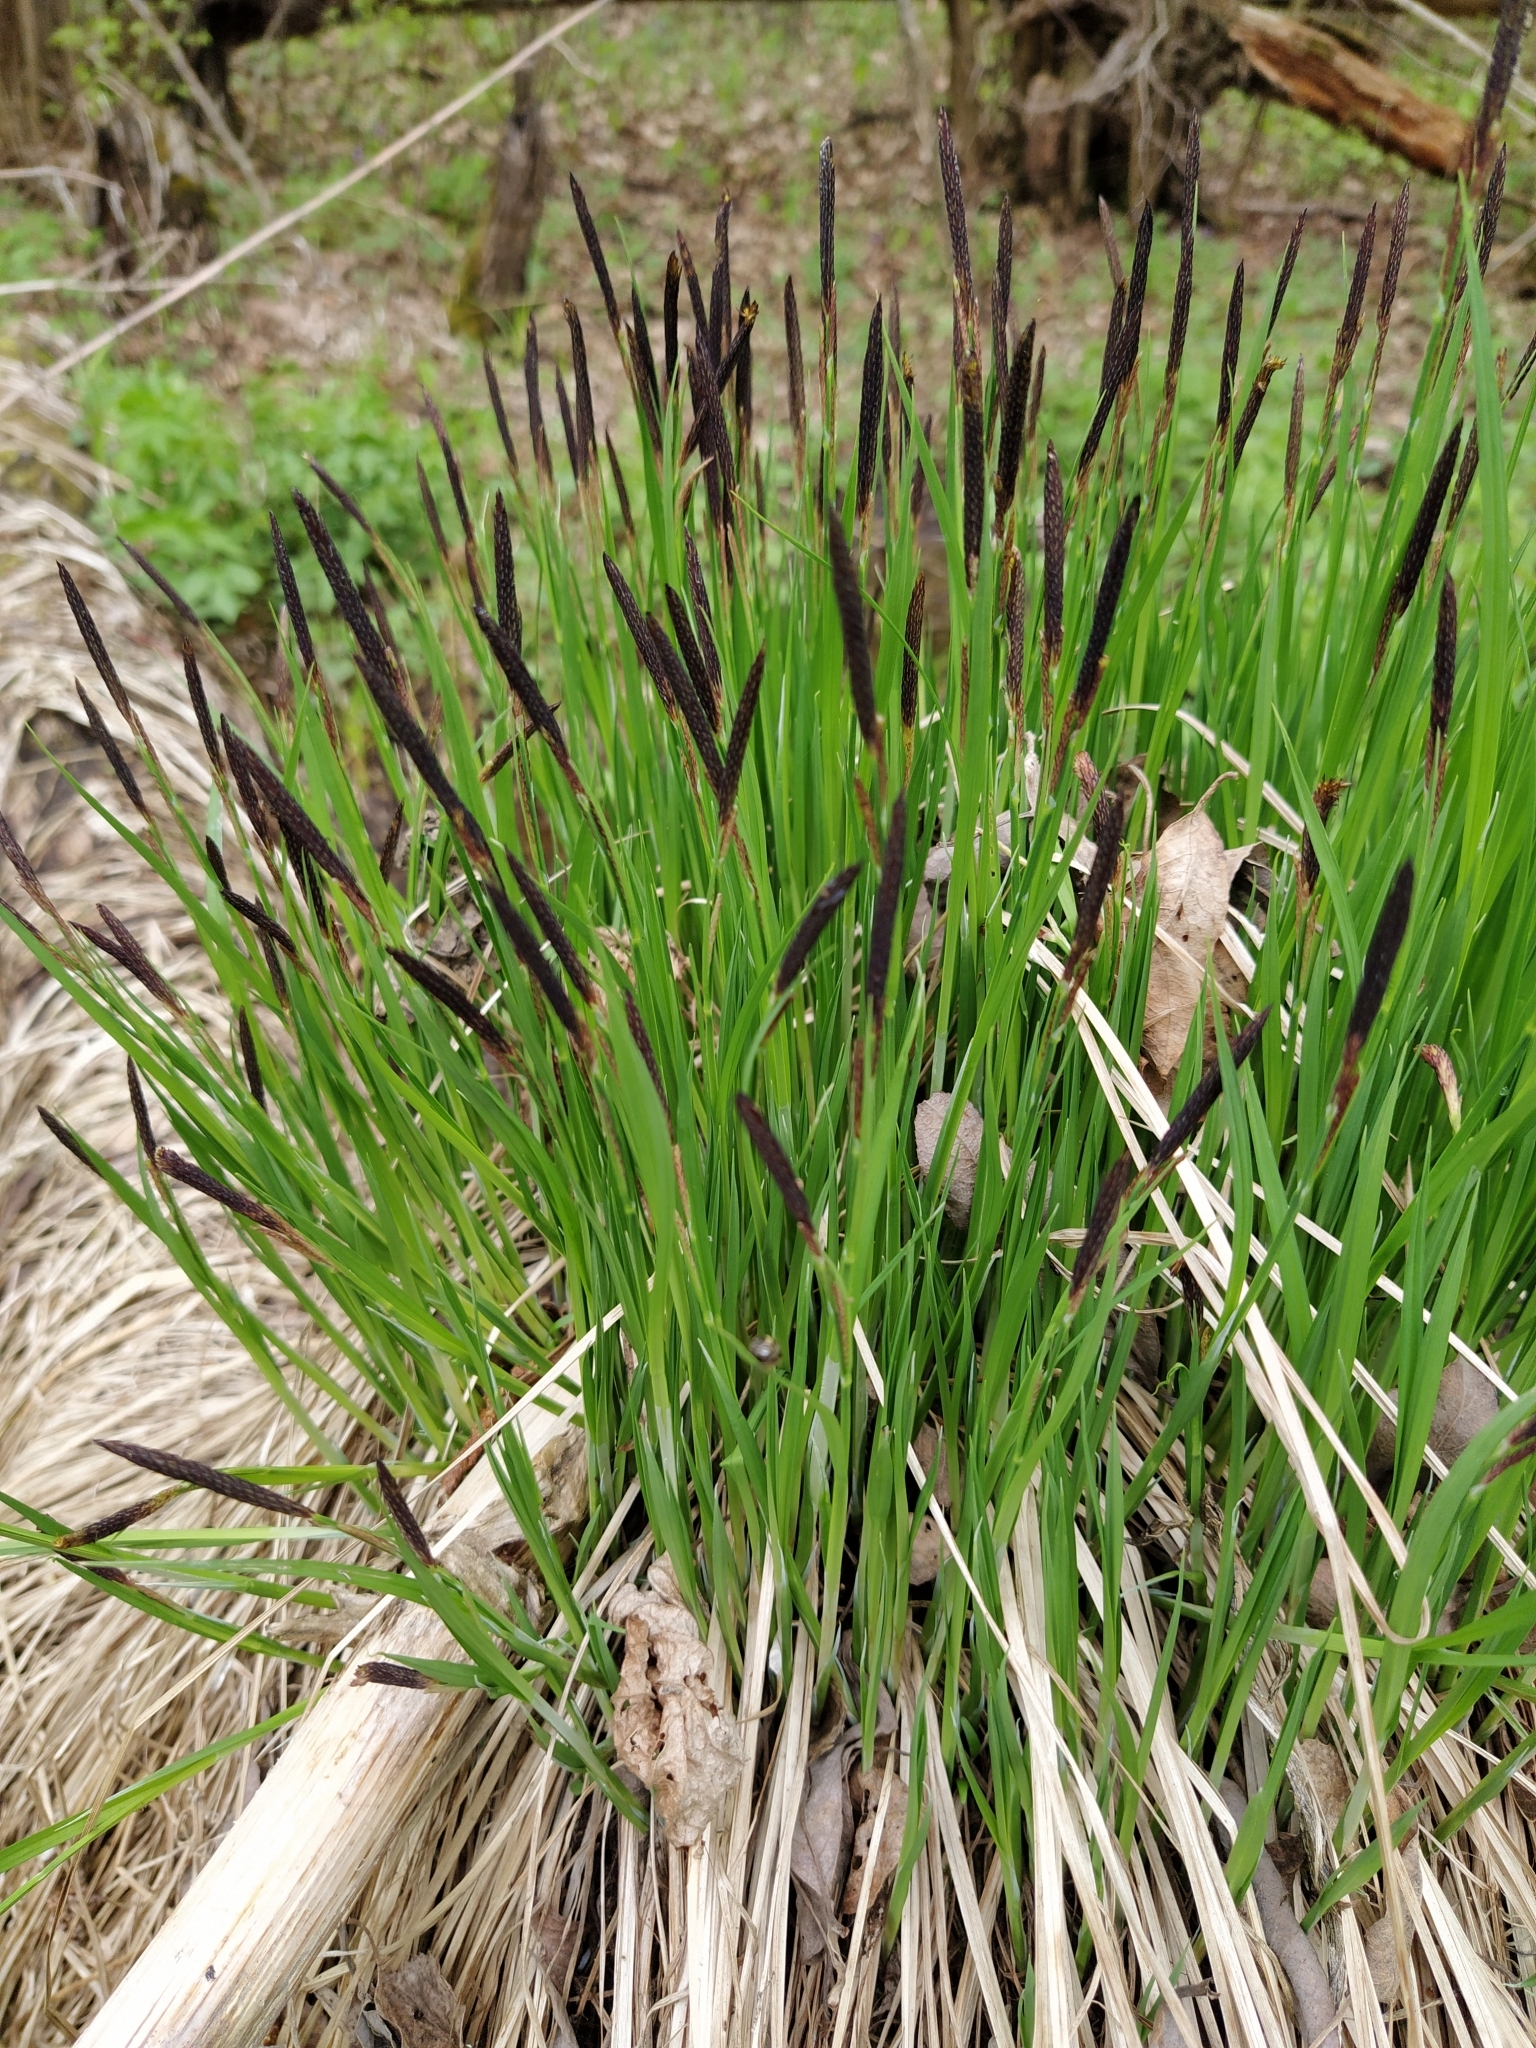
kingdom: Plantae
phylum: Tracheophyta
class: Liliopsida
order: Poales
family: Cyperaceae
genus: Carex
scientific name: Carex cespitosa
